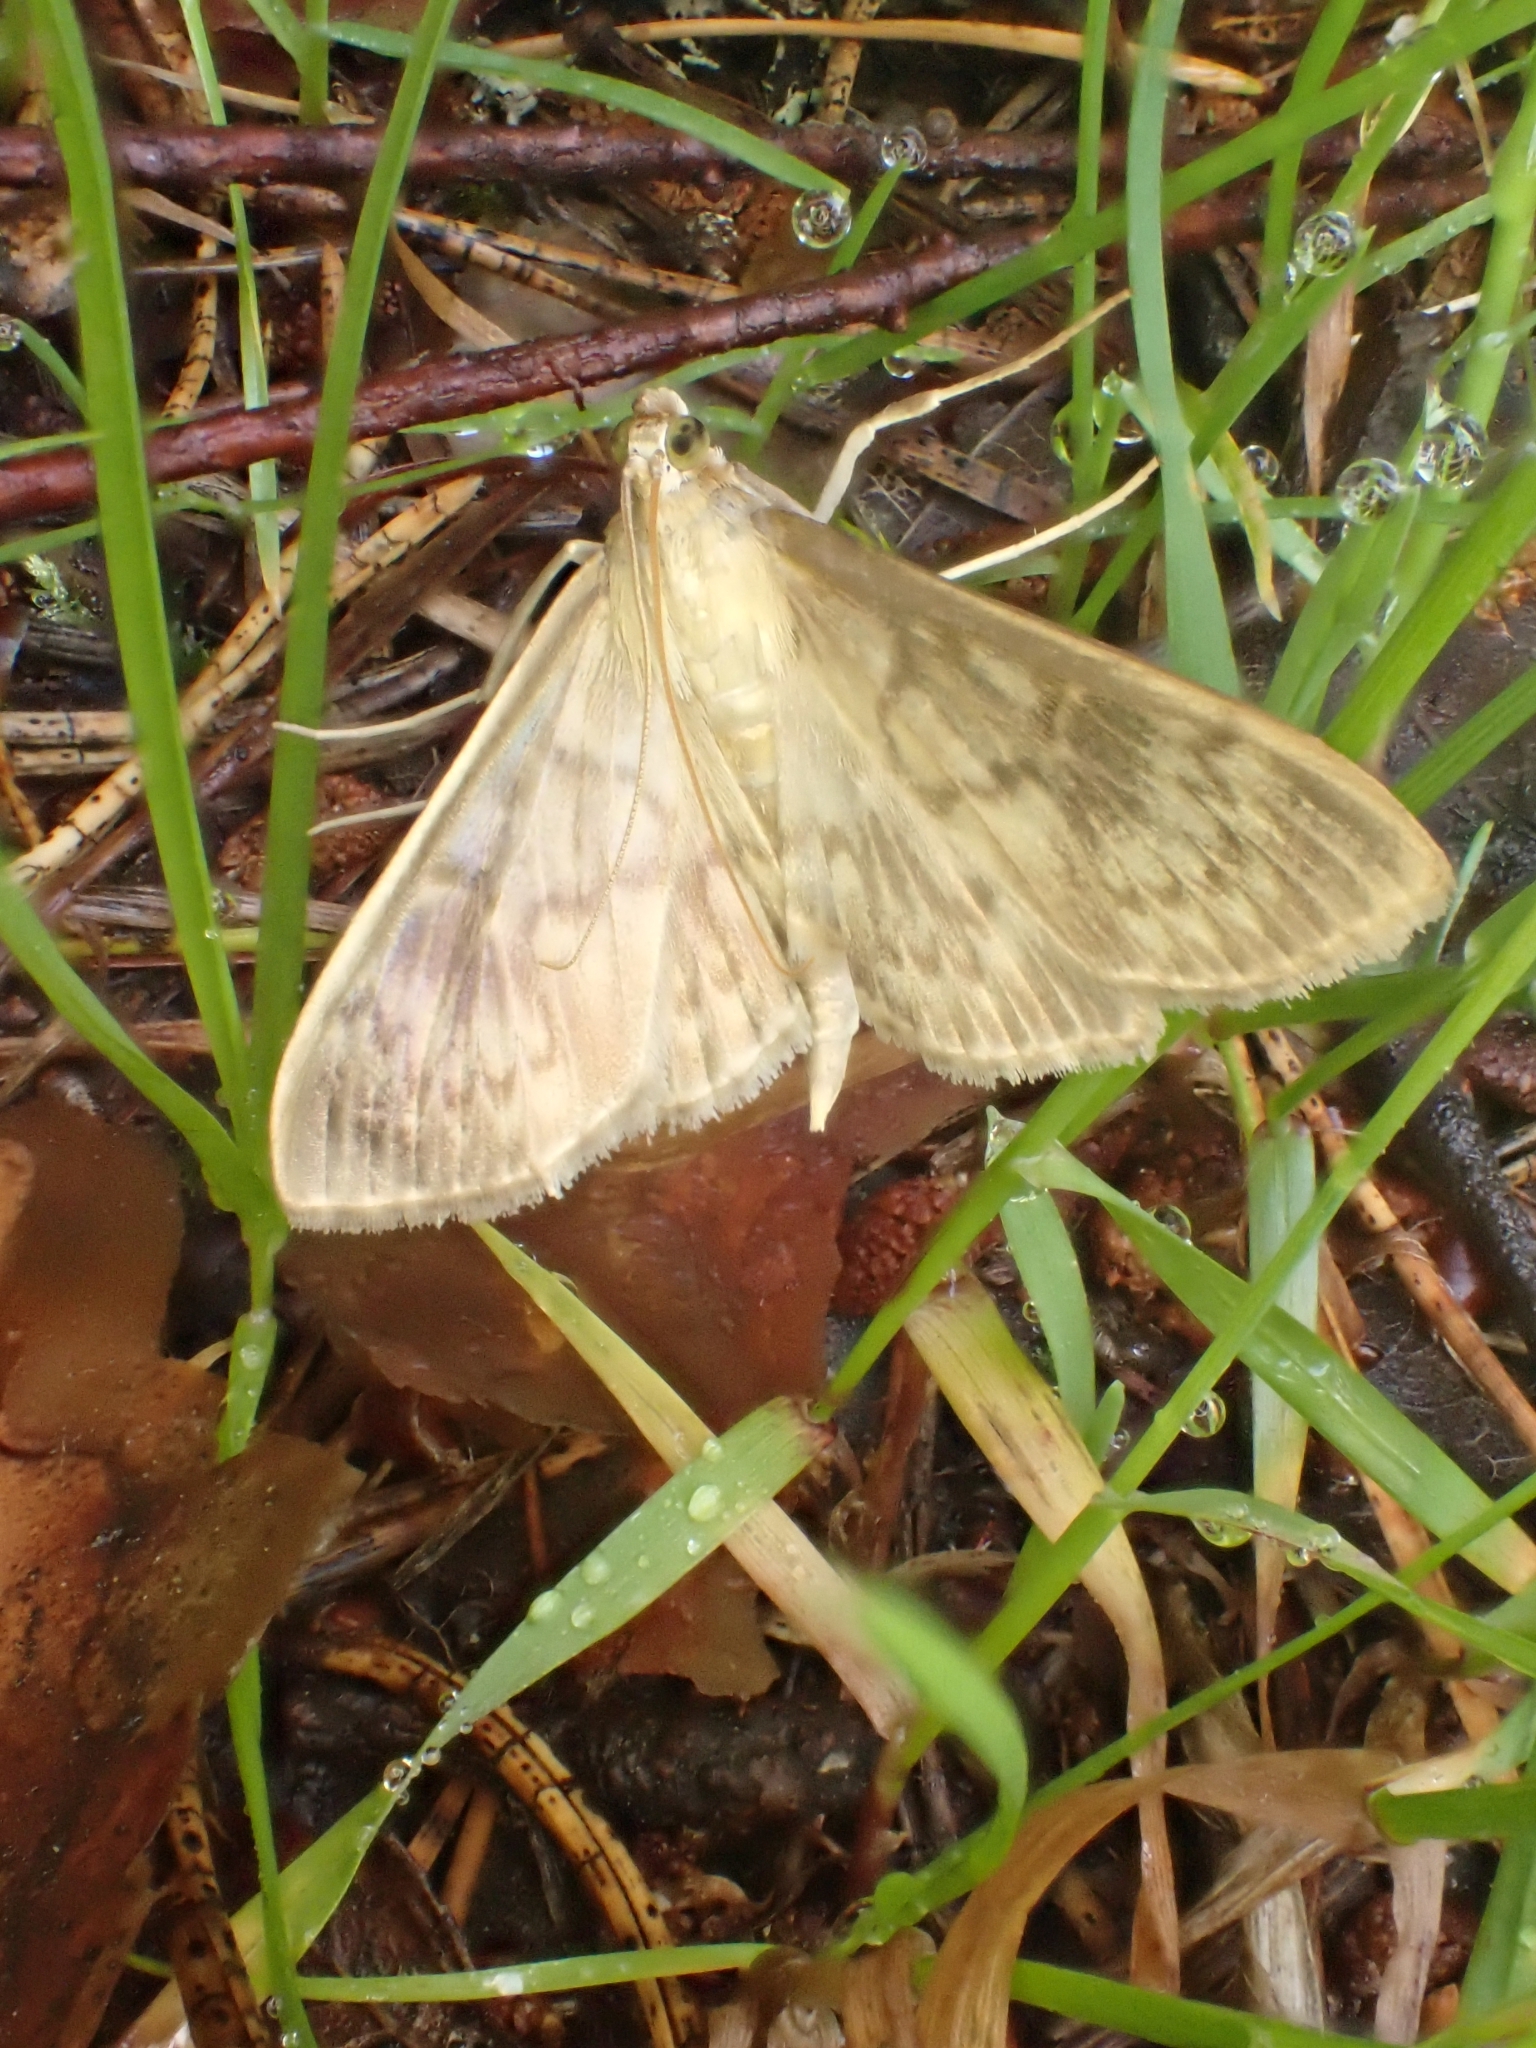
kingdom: Animalia
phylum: Arthropoda
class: Insecta
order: Lepidoptera
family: Crambidae
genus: Patania
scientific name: Patania ruralis
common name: Mother of pearl
